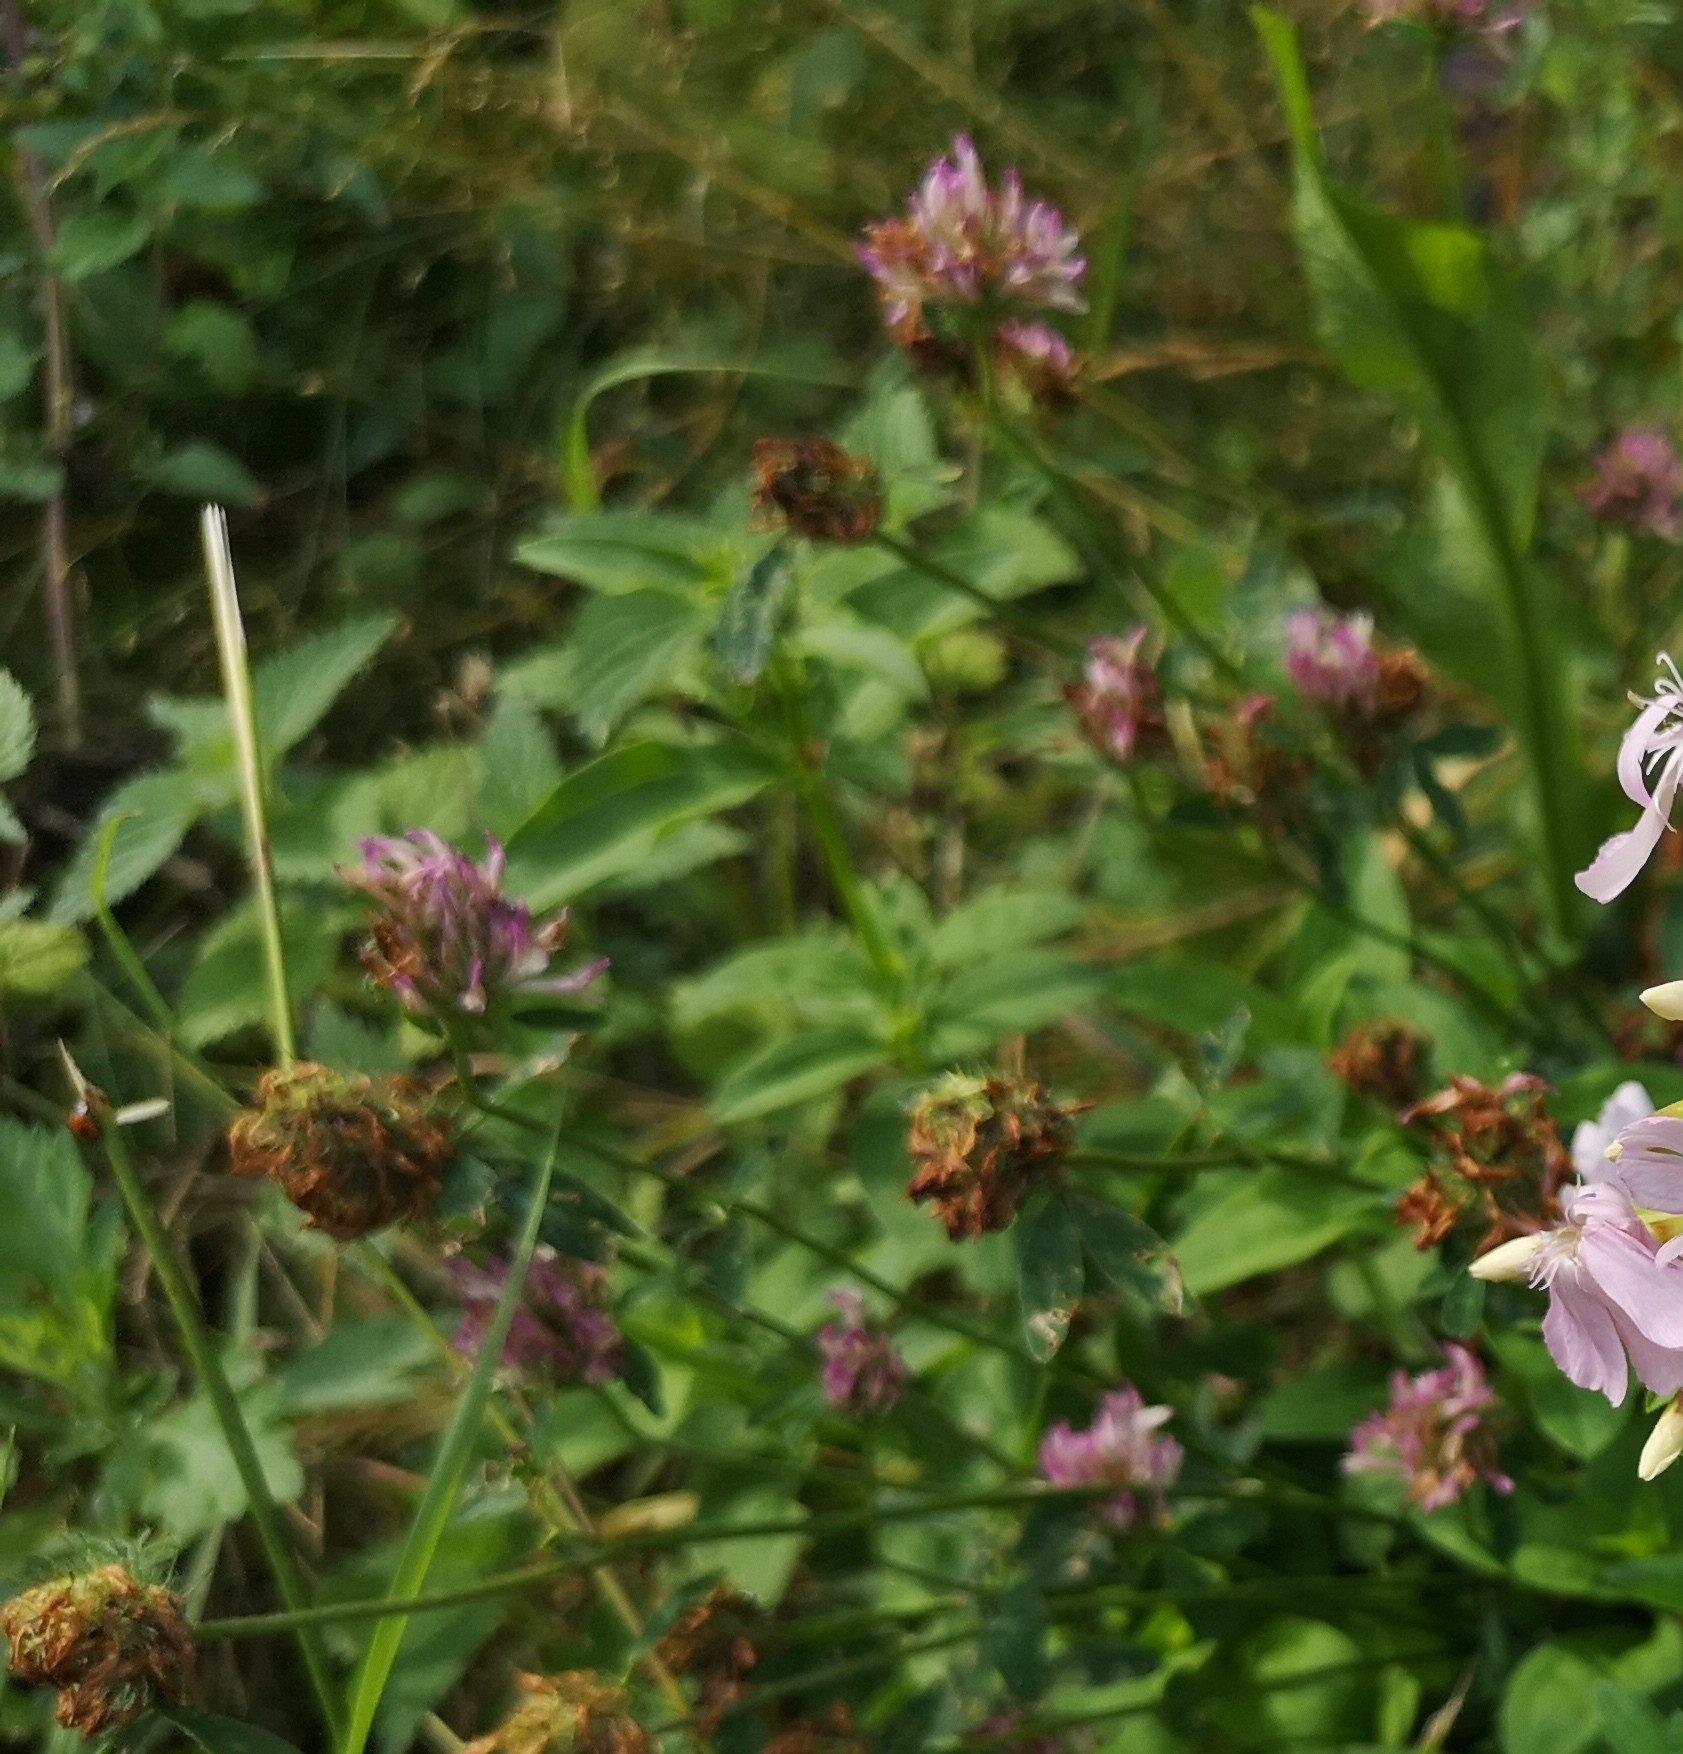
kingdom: Plantae
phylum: Tracheophyta
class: Magnoliopsida
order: Fabales
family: Fabaceae
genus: Trifolium
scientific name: Trifolium pratense
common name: Red clover
